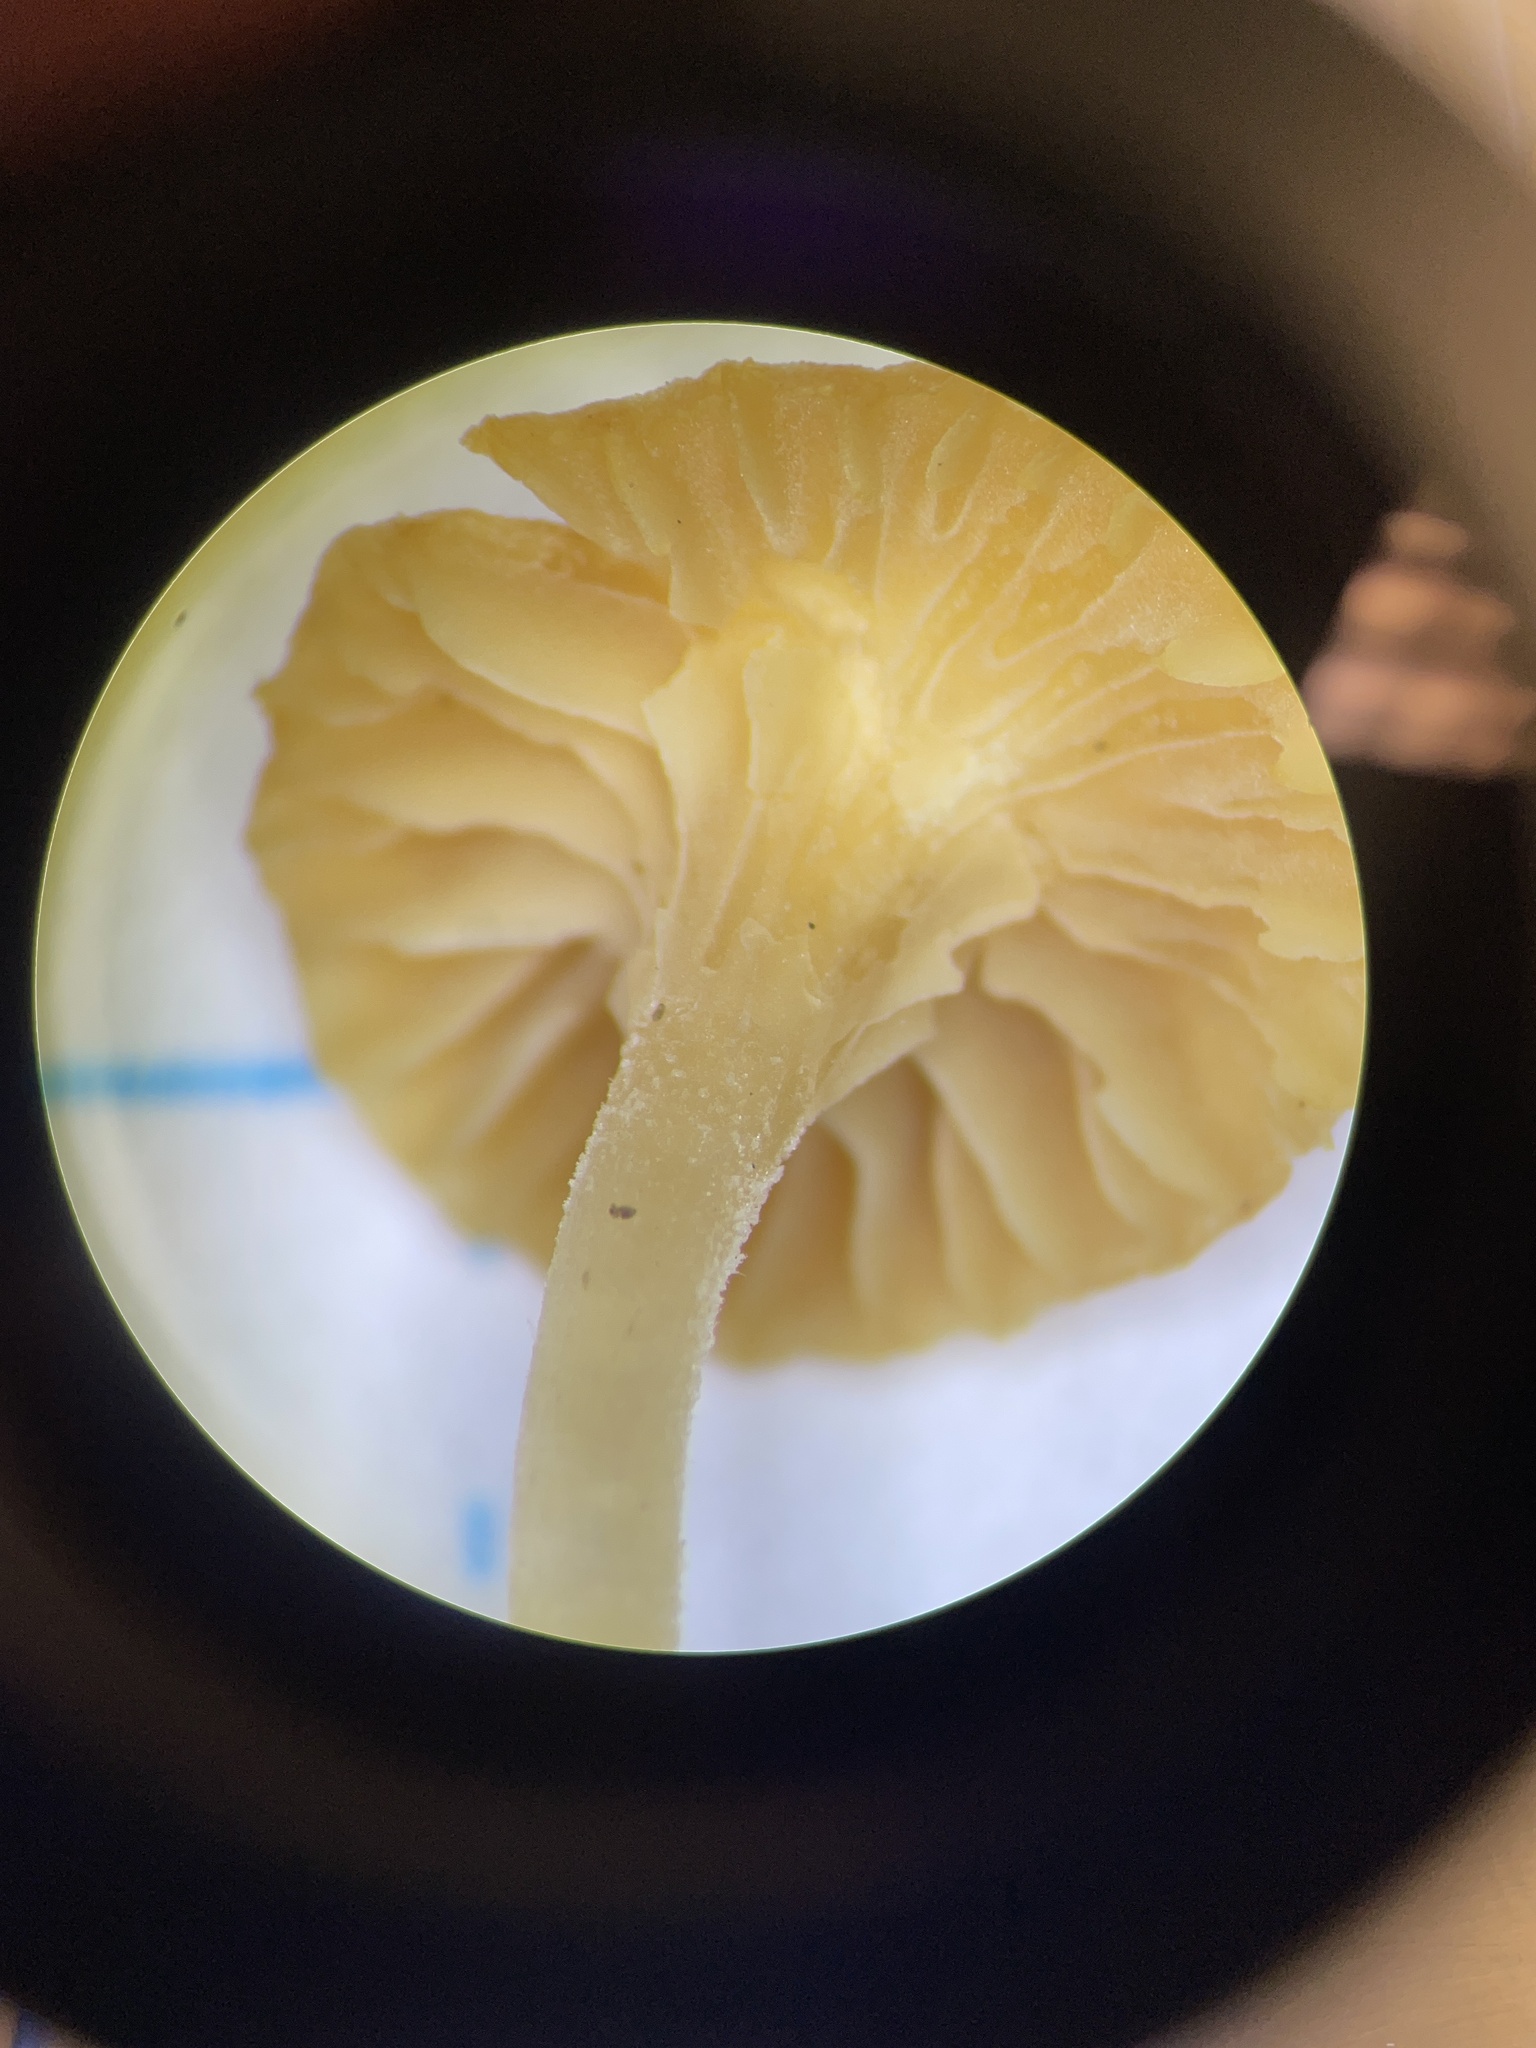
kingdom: Fungi
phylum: Basidiomycota
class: Agaricomycetes
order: Hymenochaetales
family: Rickenellaceae
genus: Loreleia
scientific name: Loreleia marchantiae
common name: Liverwort navel
